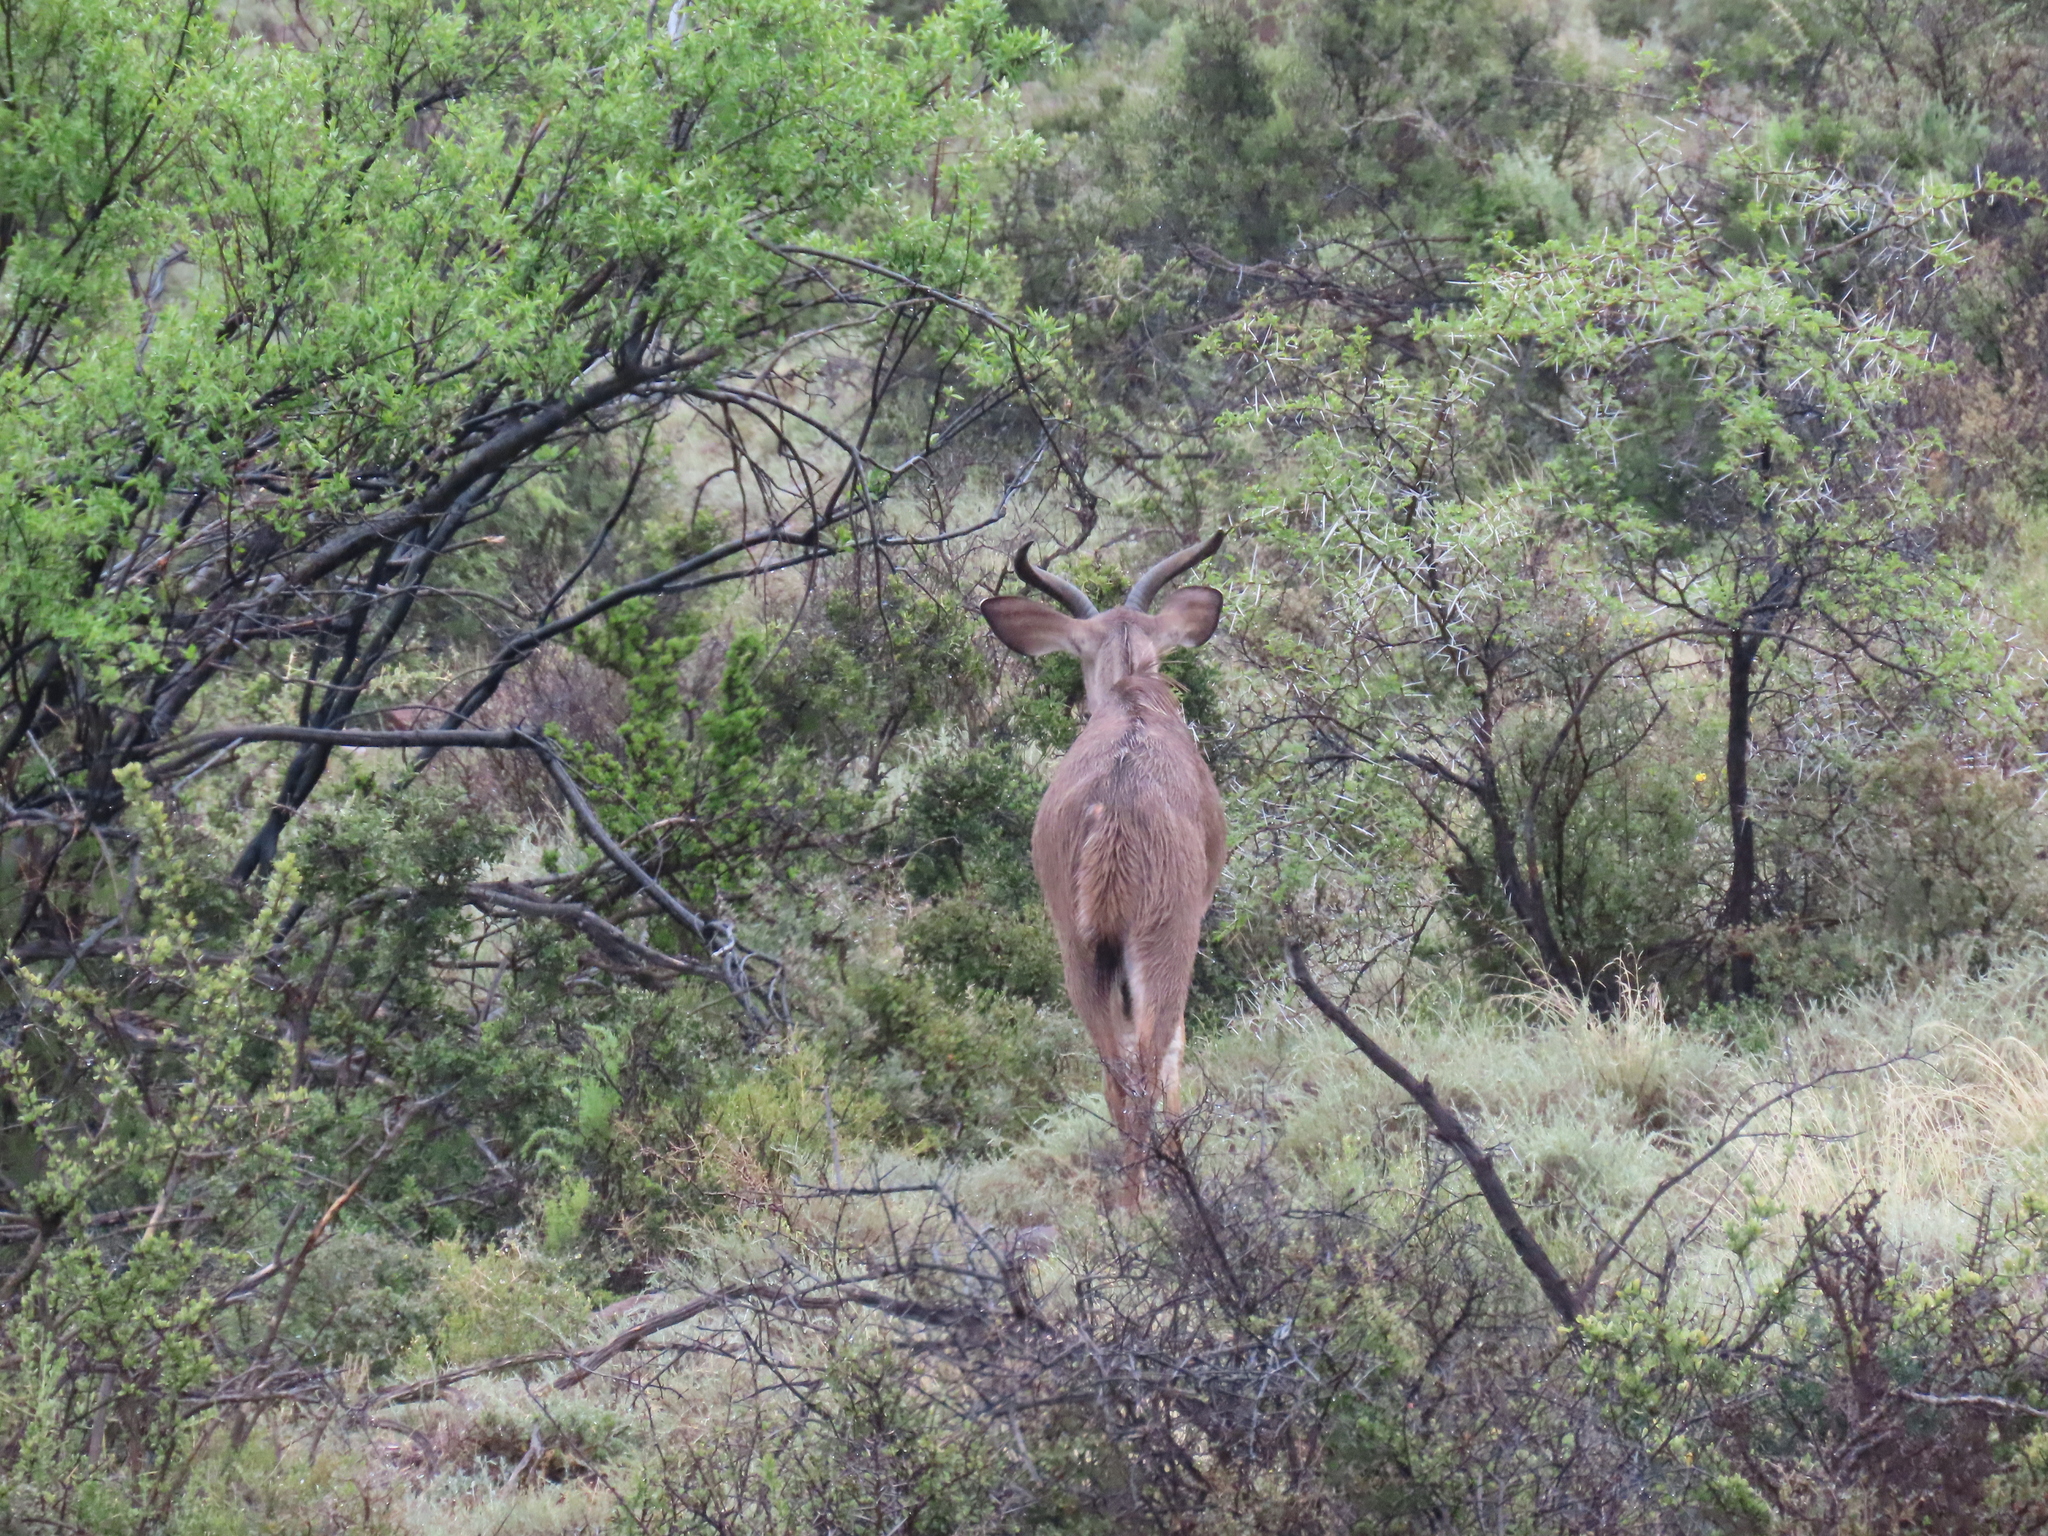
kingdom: Animalia
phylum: Chordata
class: Mammalia
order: Artiodactyla
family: Bovidae
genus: Tragelaphus
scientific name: Tragelaphus strepsiceros
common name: Greater kudu
